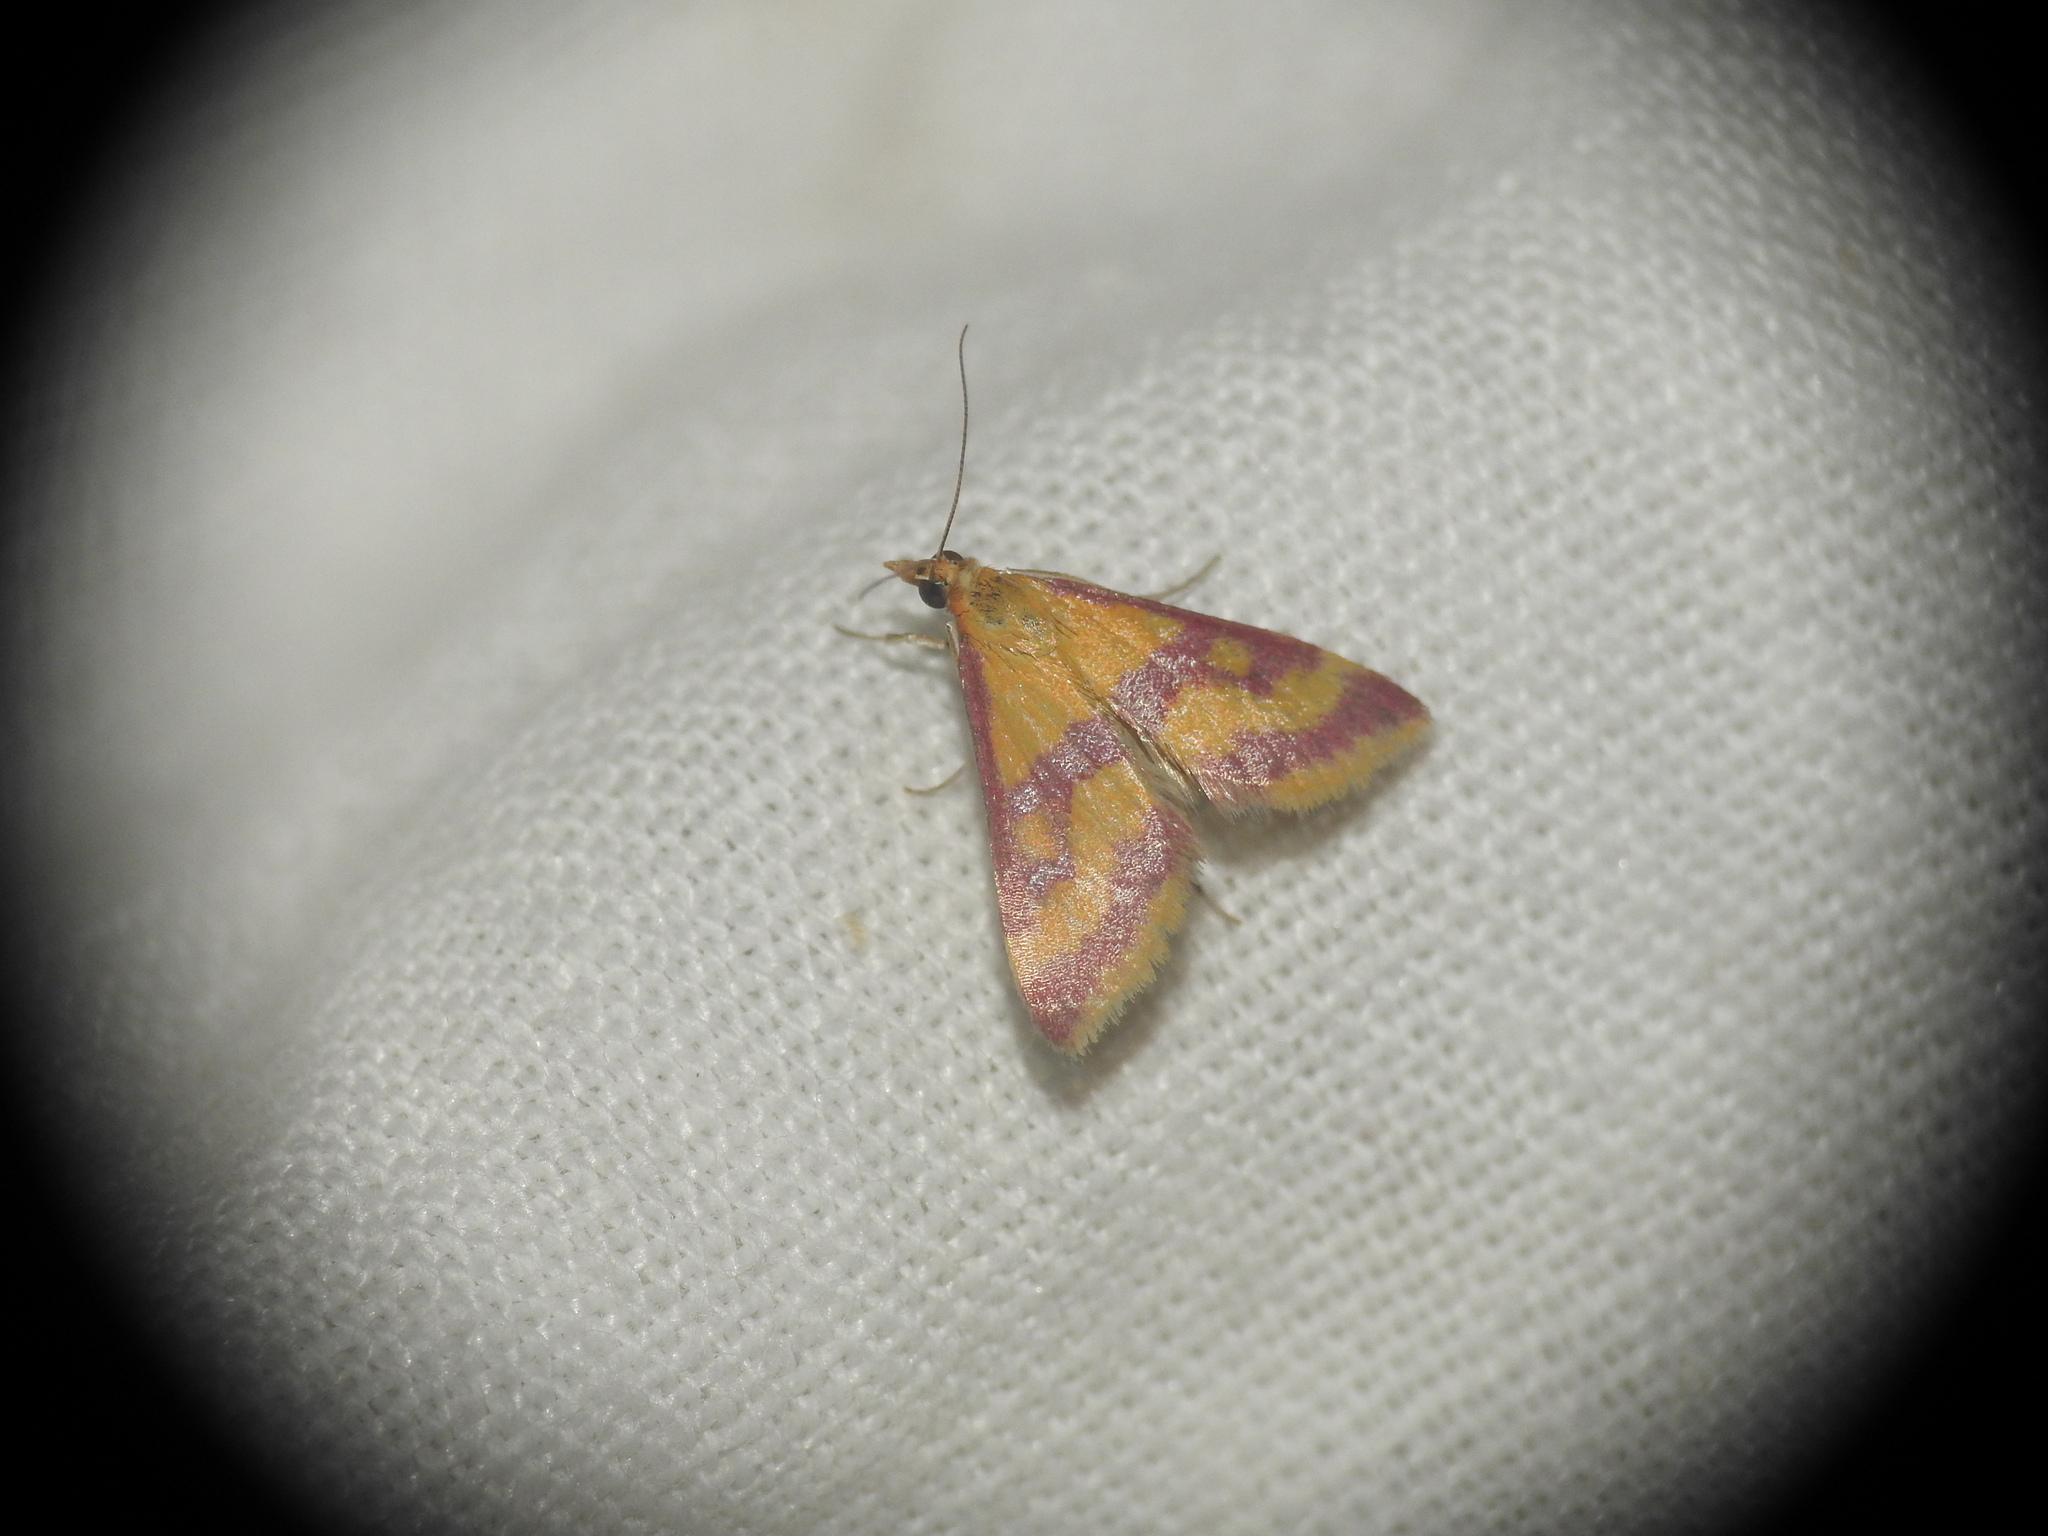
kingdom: Animalia
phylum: Arthropoda
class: Insecta
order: Lepidoptera
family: Crambidae
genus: Pyrausta
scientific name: Pyrausta sanguinalis
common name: Scarce crimson and gold
